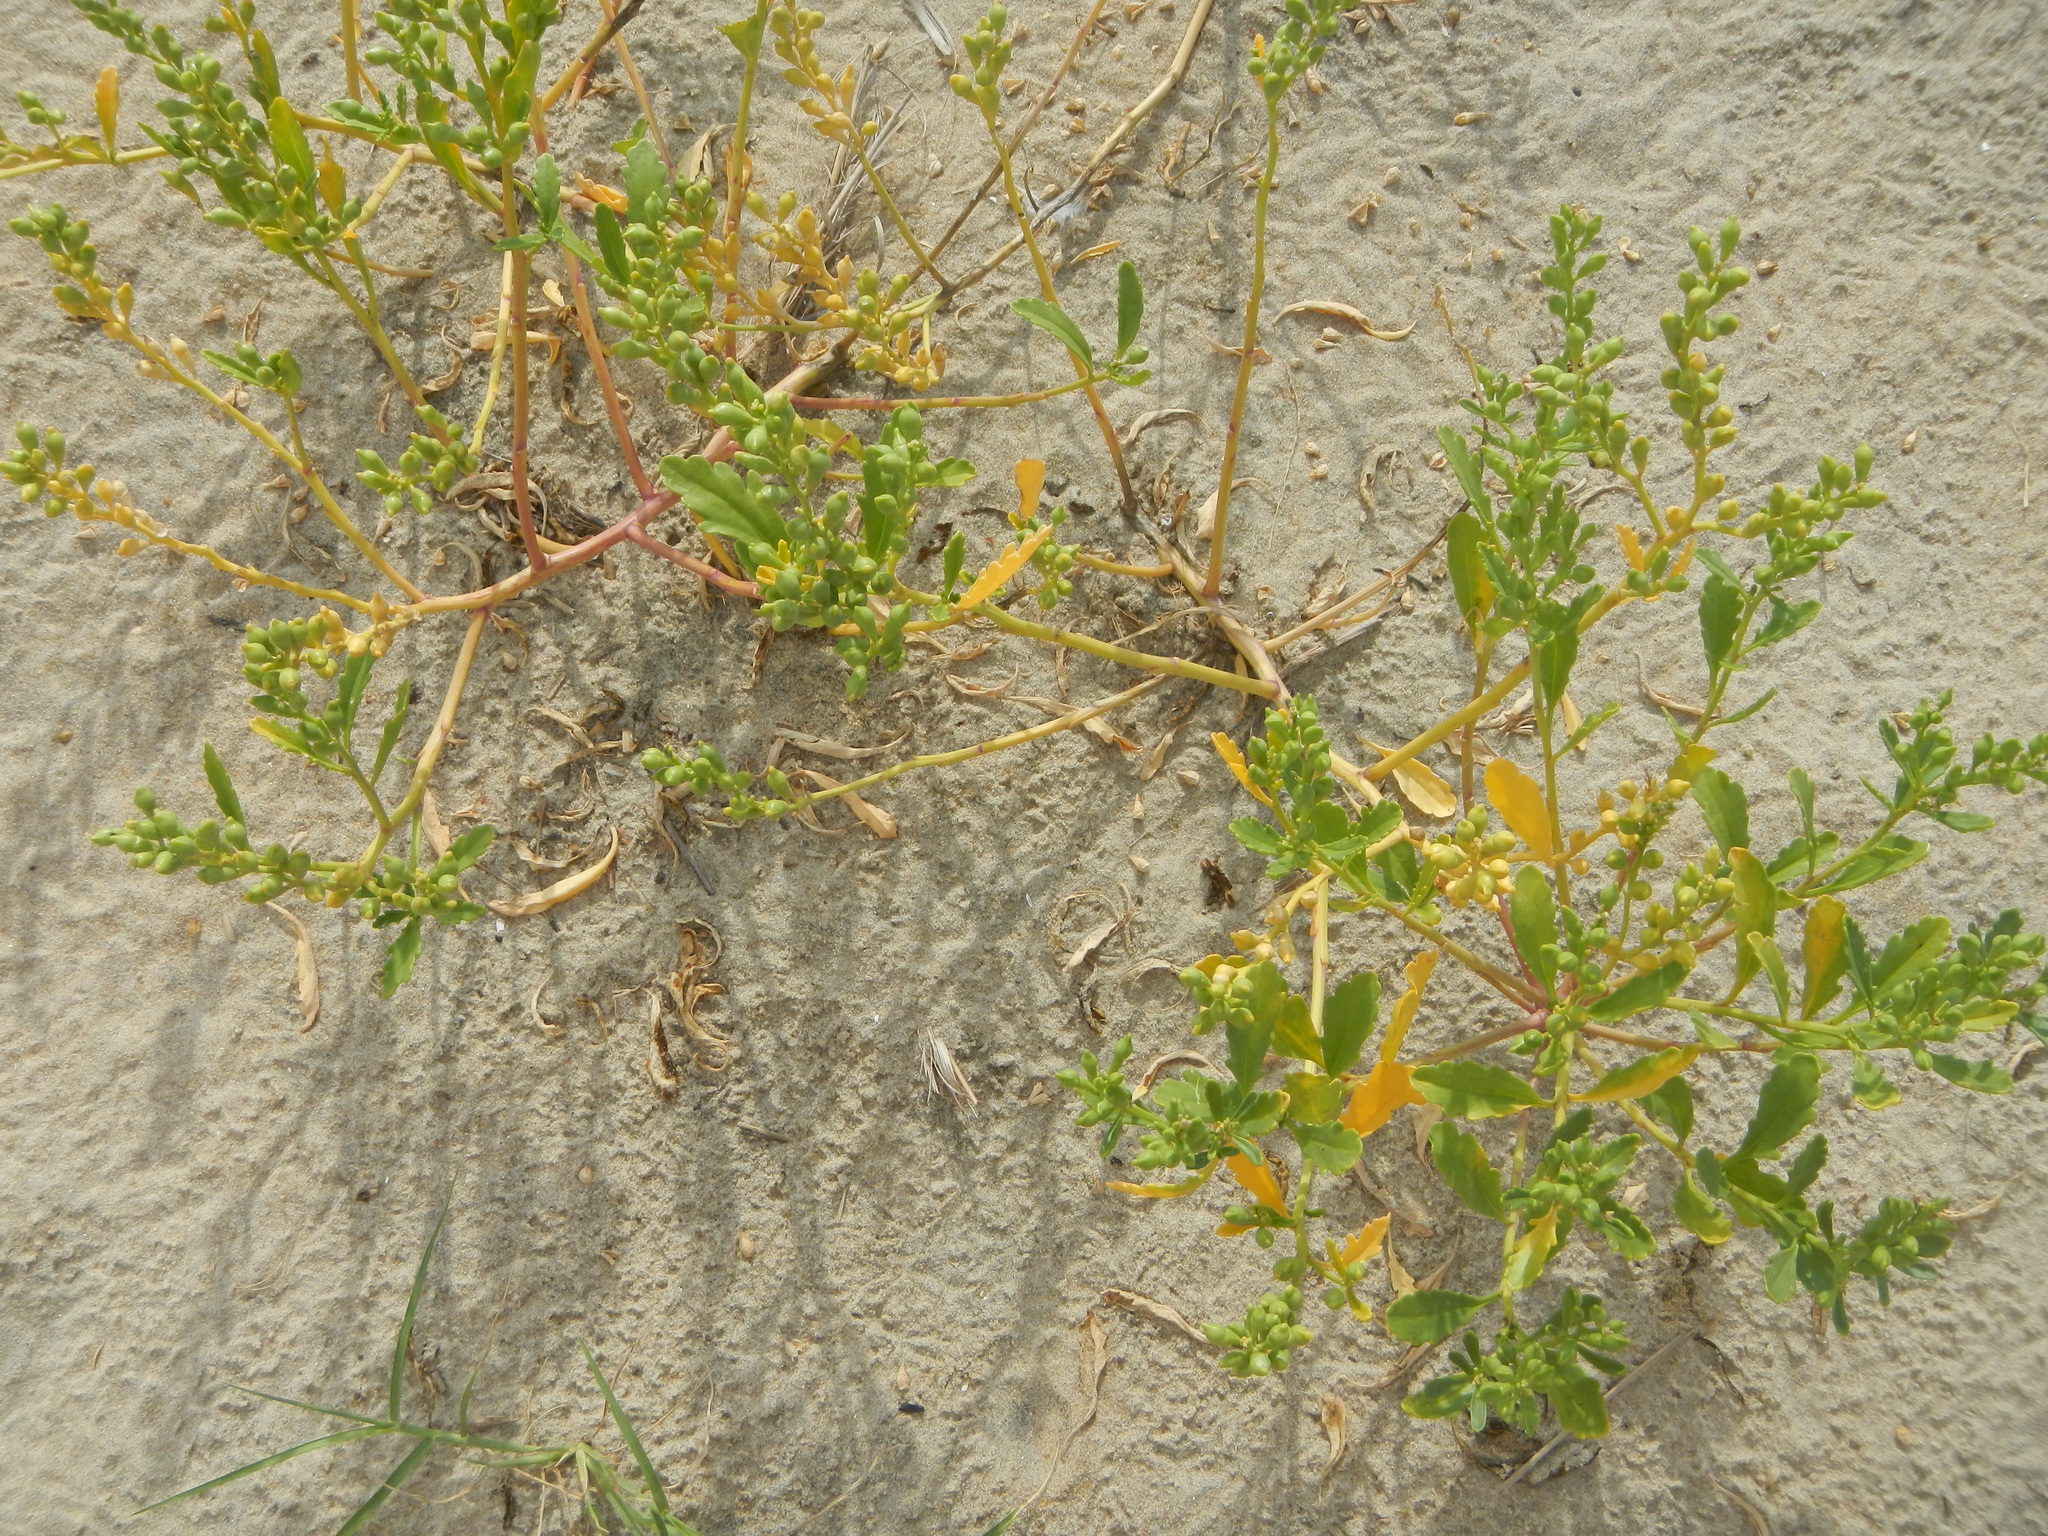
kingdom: Plantae
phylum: Tracheophyta
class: Magnoliopsida
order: Brassicales
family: Brassicaceae
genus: Cakile
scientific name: Cakile edentula
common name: American sea rocket
